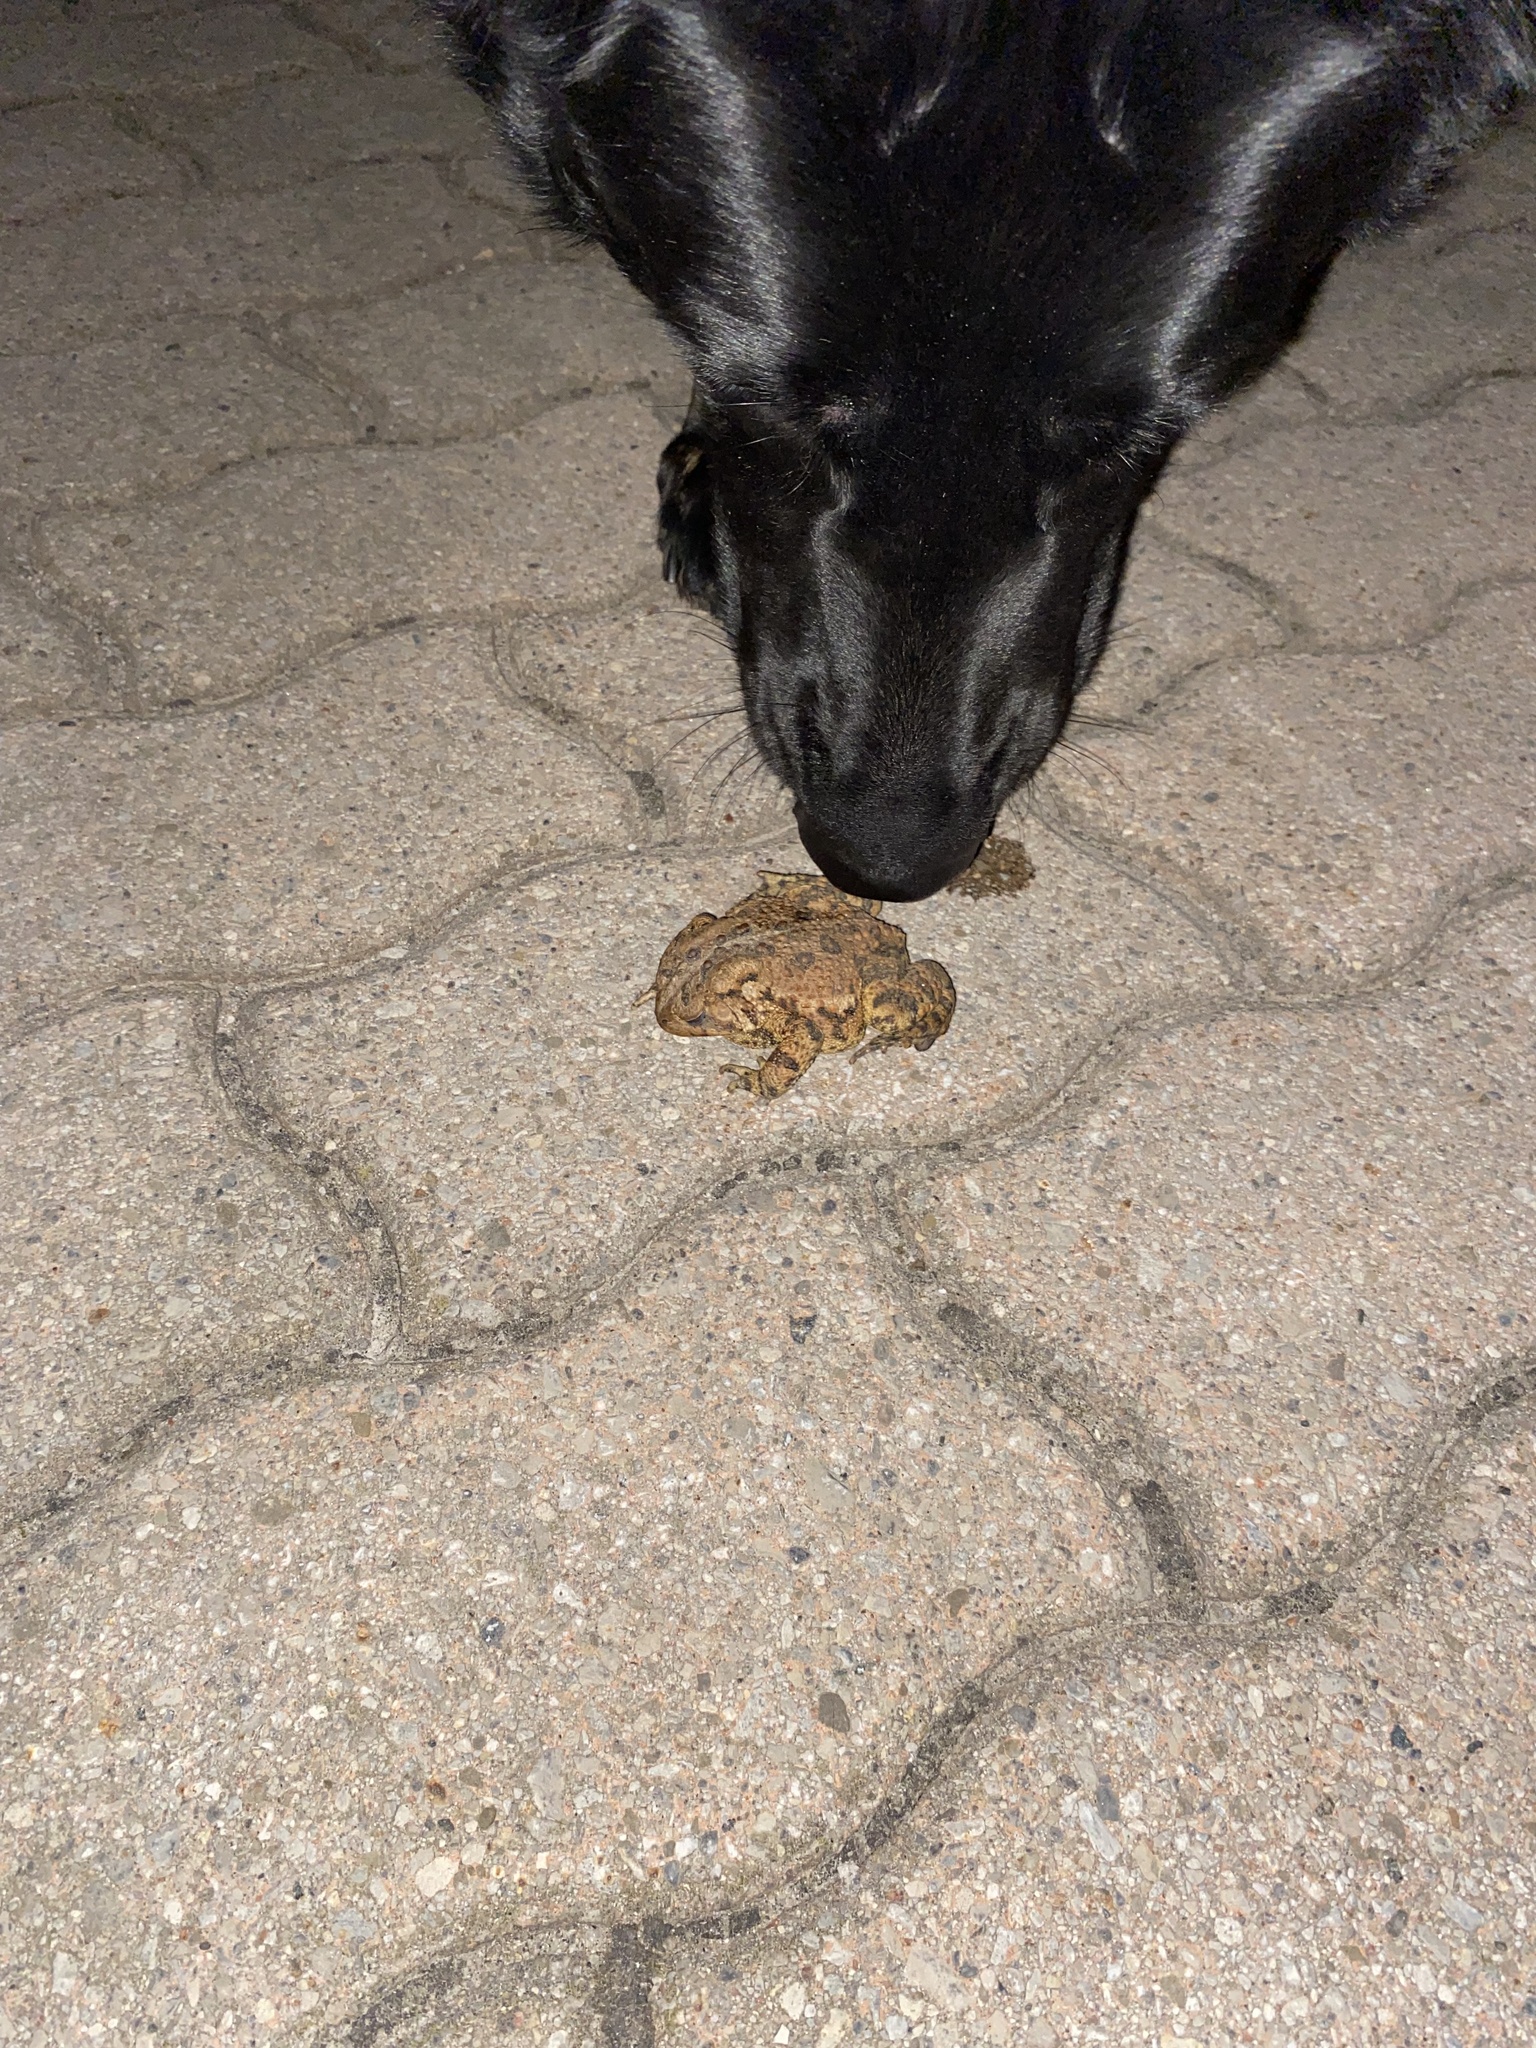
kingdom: Animalia
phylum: Chordata
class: Amphibia
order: Anura
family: Bufonidae
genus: Anaxyrus
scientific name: Anaxyrus americanus
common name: American toad
